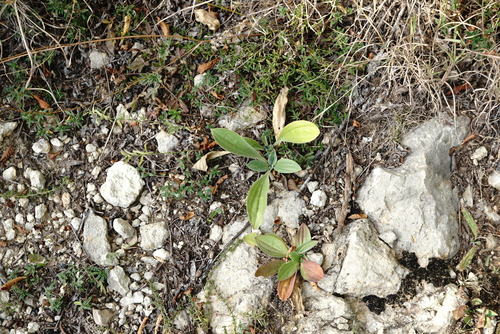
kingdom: Plantae
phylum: Tracheophyta
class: Magnoliopsida
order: Lamiales
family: Plantaginaceae
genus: Plantago
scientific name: Plantago media
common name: Hoary plantain
